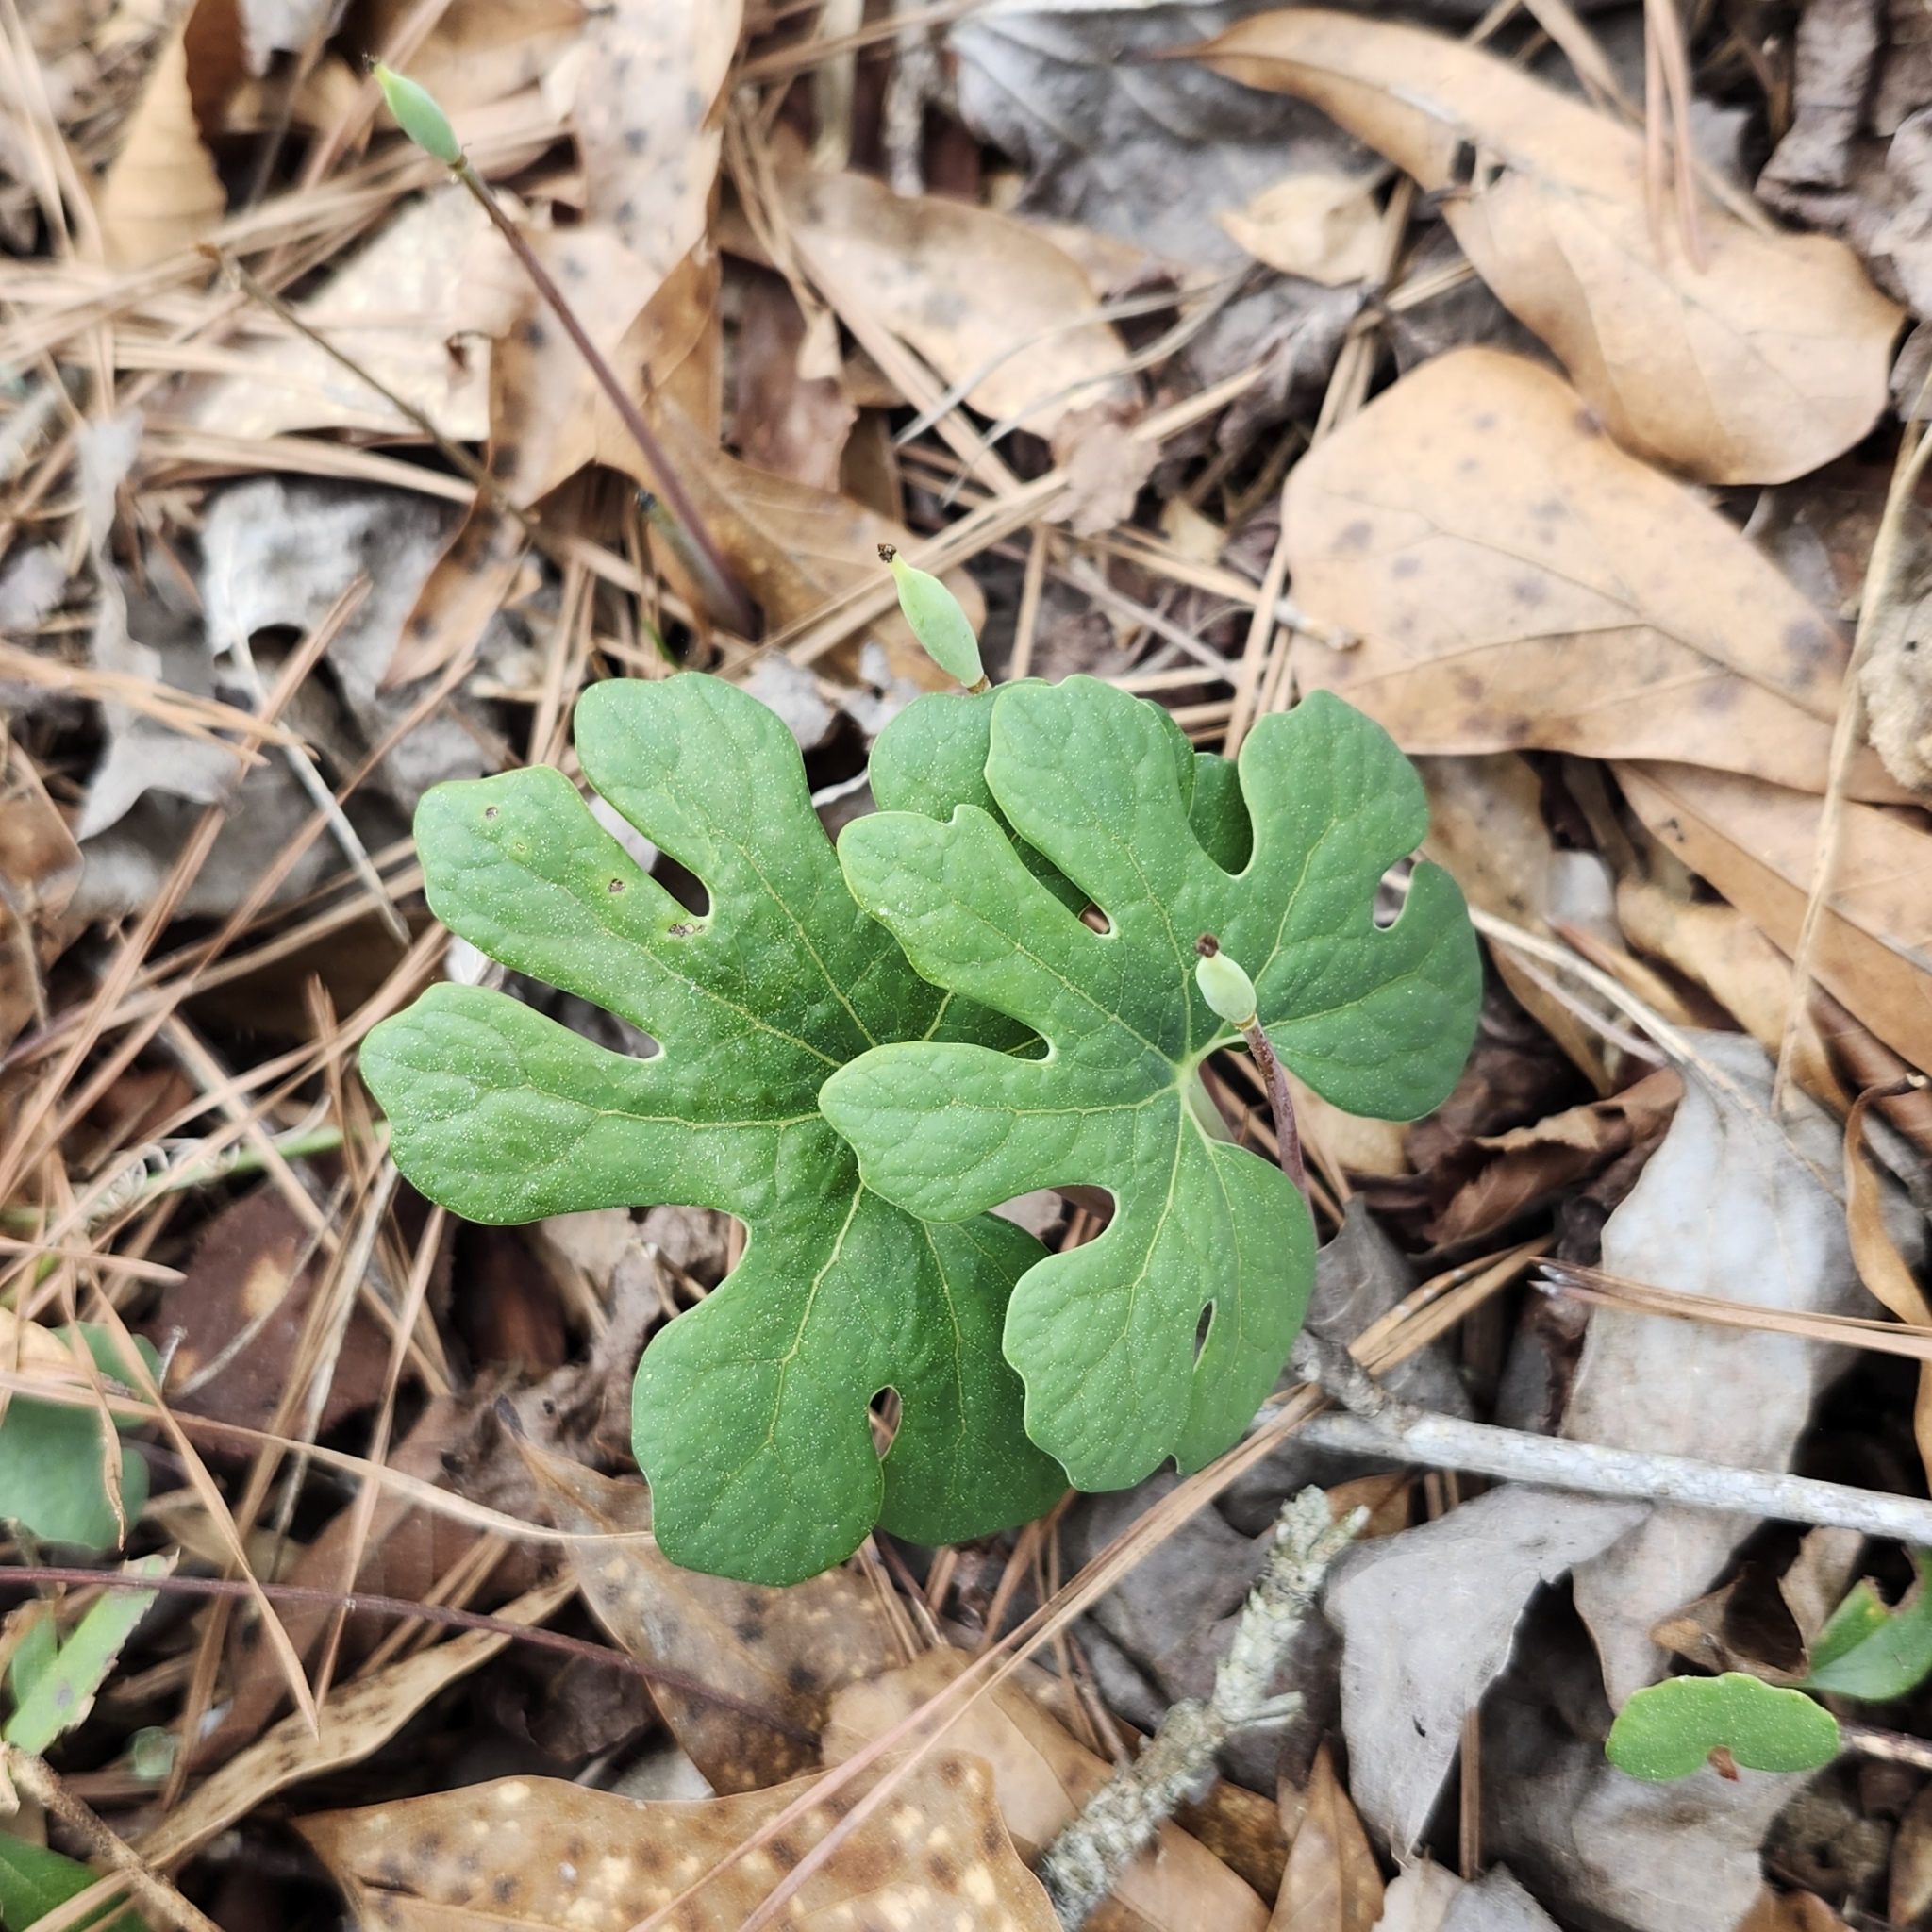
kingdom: Plantae
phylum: Tracheophyta
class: Magnoliopsida
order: Ranunculales
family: Papaveraceae
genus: Sanguinaria
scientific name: Sanguinaria canadensis
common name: Bloodroot
